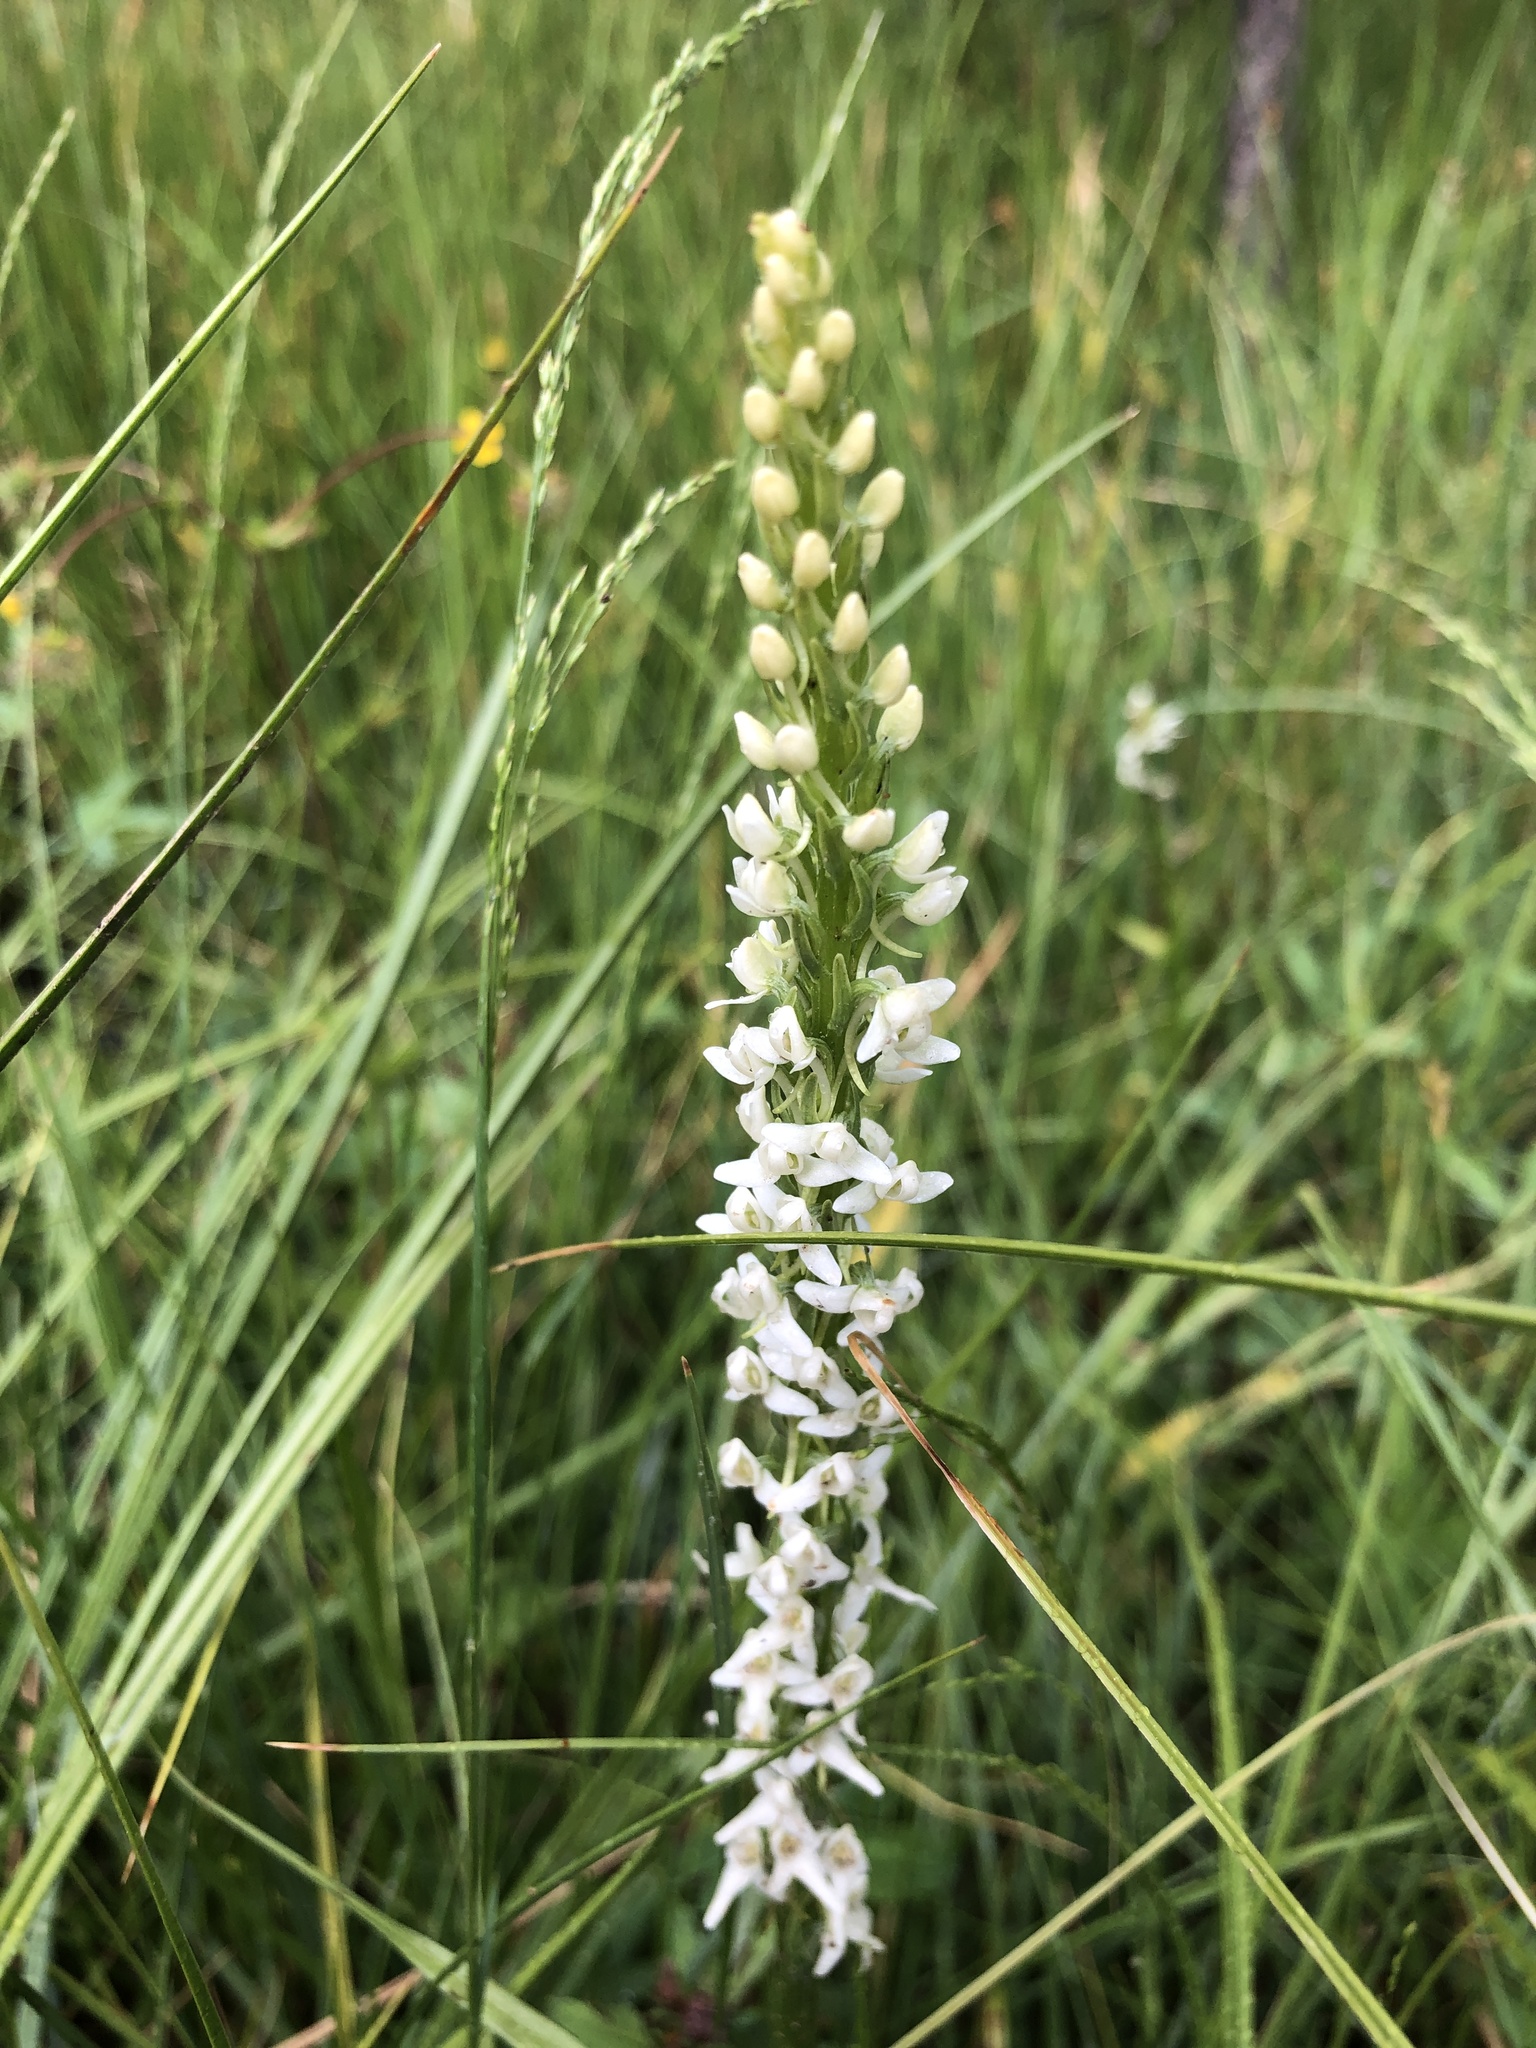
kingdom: Plantae
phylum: Tracheophyta
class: Liliopsida
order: Asparagales
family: Orchidaceae
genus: Platanthera
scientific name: Platanthera dilatata
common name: Bog candles
